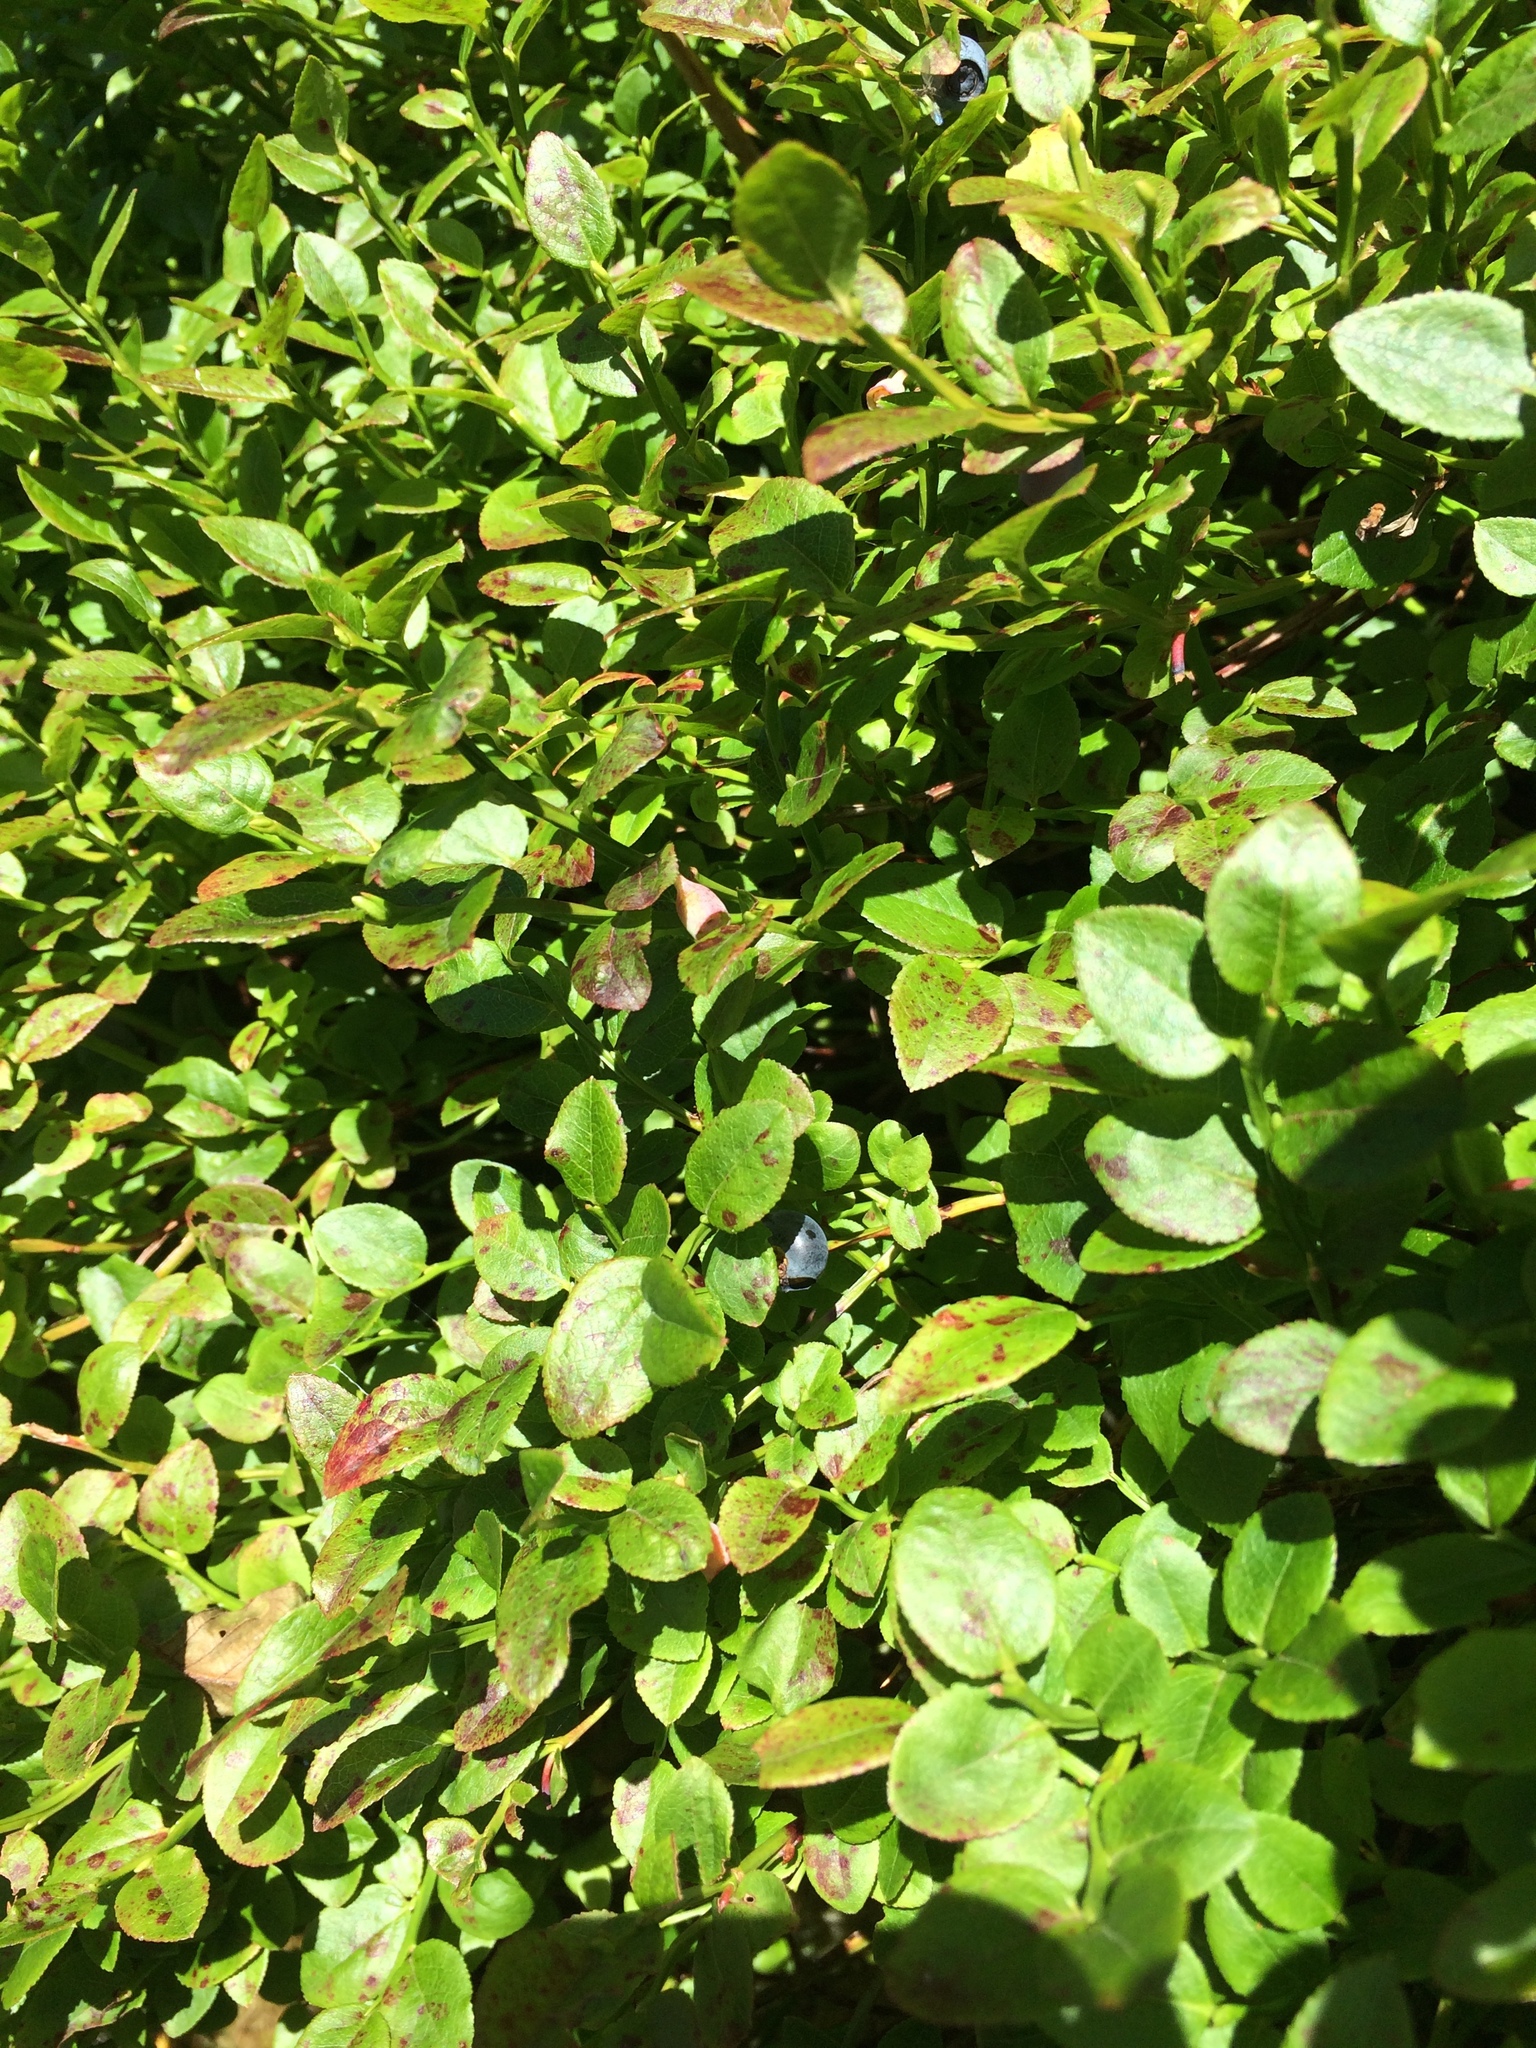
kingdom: Plantae
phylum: Tracheophyta
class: Magnoliopsida
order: Ericales
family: Ericaceae
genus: Vaccinium
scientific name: Vaccinium myrtillus
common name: Bilberry
